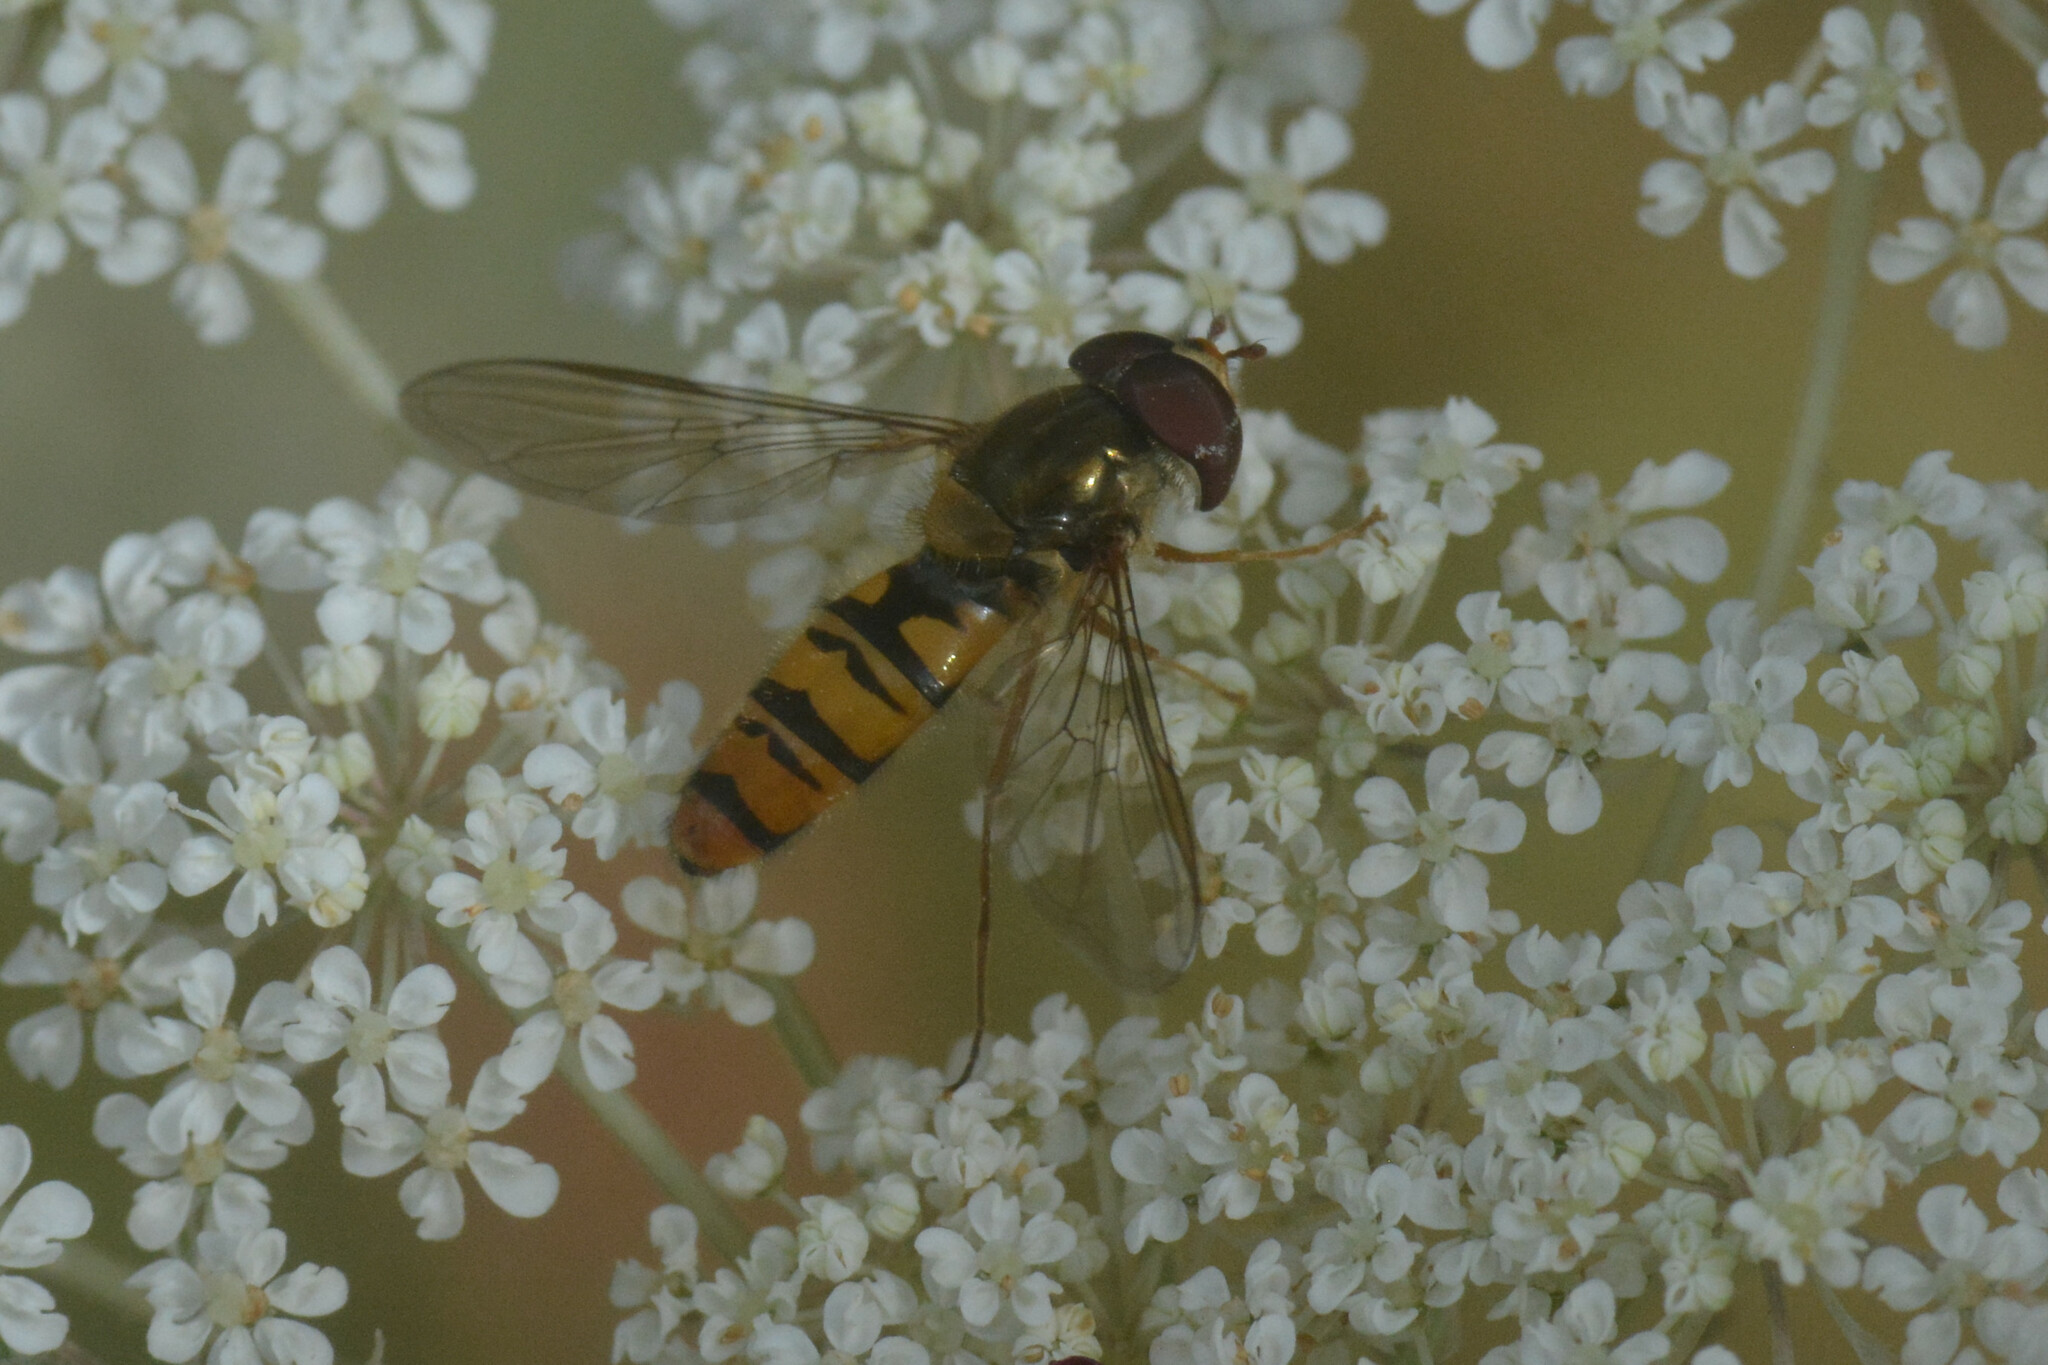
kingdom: Animalia
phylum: Arthropoda
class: Insecta
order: Diptera
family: Syrphidae
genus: Episyrphus
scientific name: Episyrphus balteatus
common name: Marmalade hoverfly
